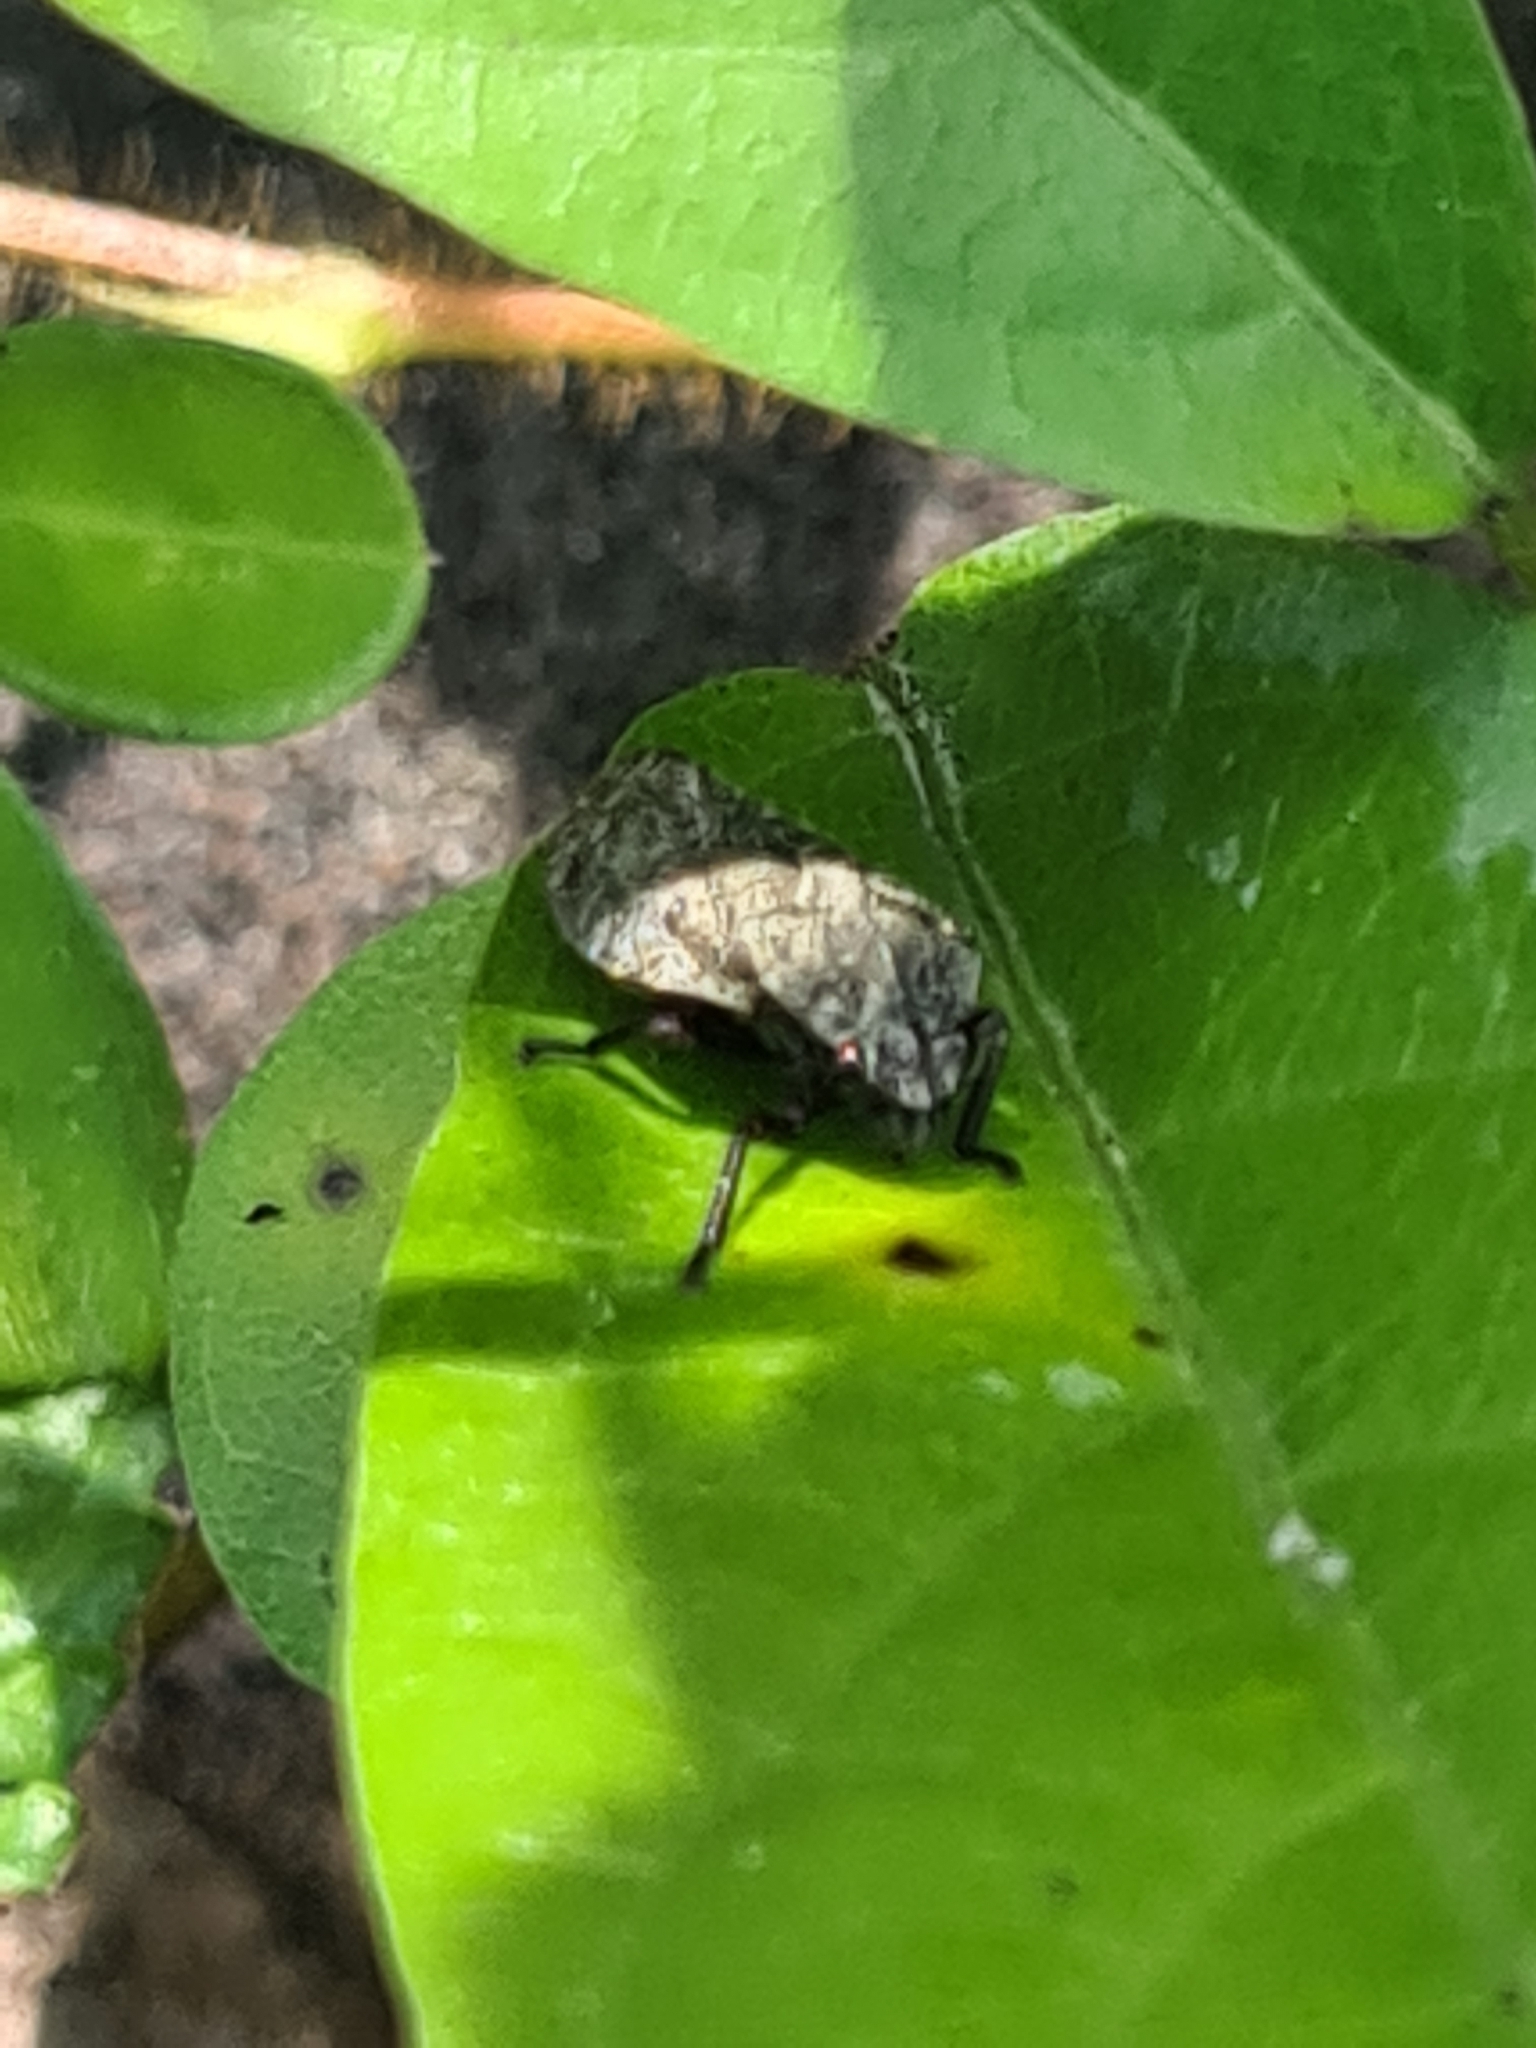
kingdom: Animalia
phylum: Arthropoda
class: Insecta
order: Hemiptera
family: Cercopidae
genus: Zulia
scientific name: Zulia pubescens
